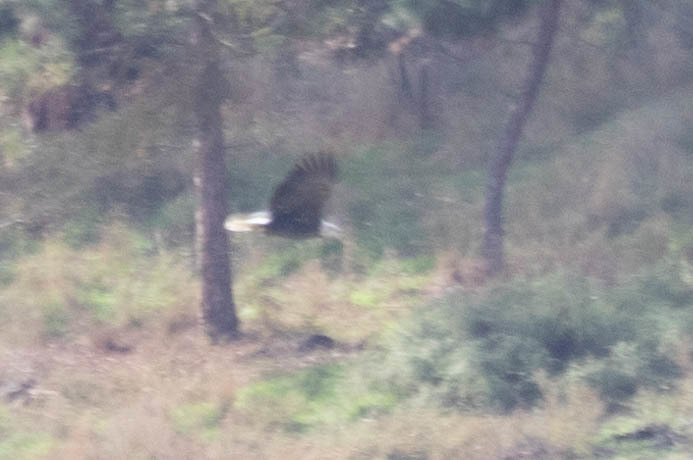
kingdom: Animalia
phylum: Chordata
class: Aves
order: Accipitriformes
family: Accipitridae
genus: Haliaeetus
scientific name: Haliaeetus leucocephalus
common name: Bald eagle
